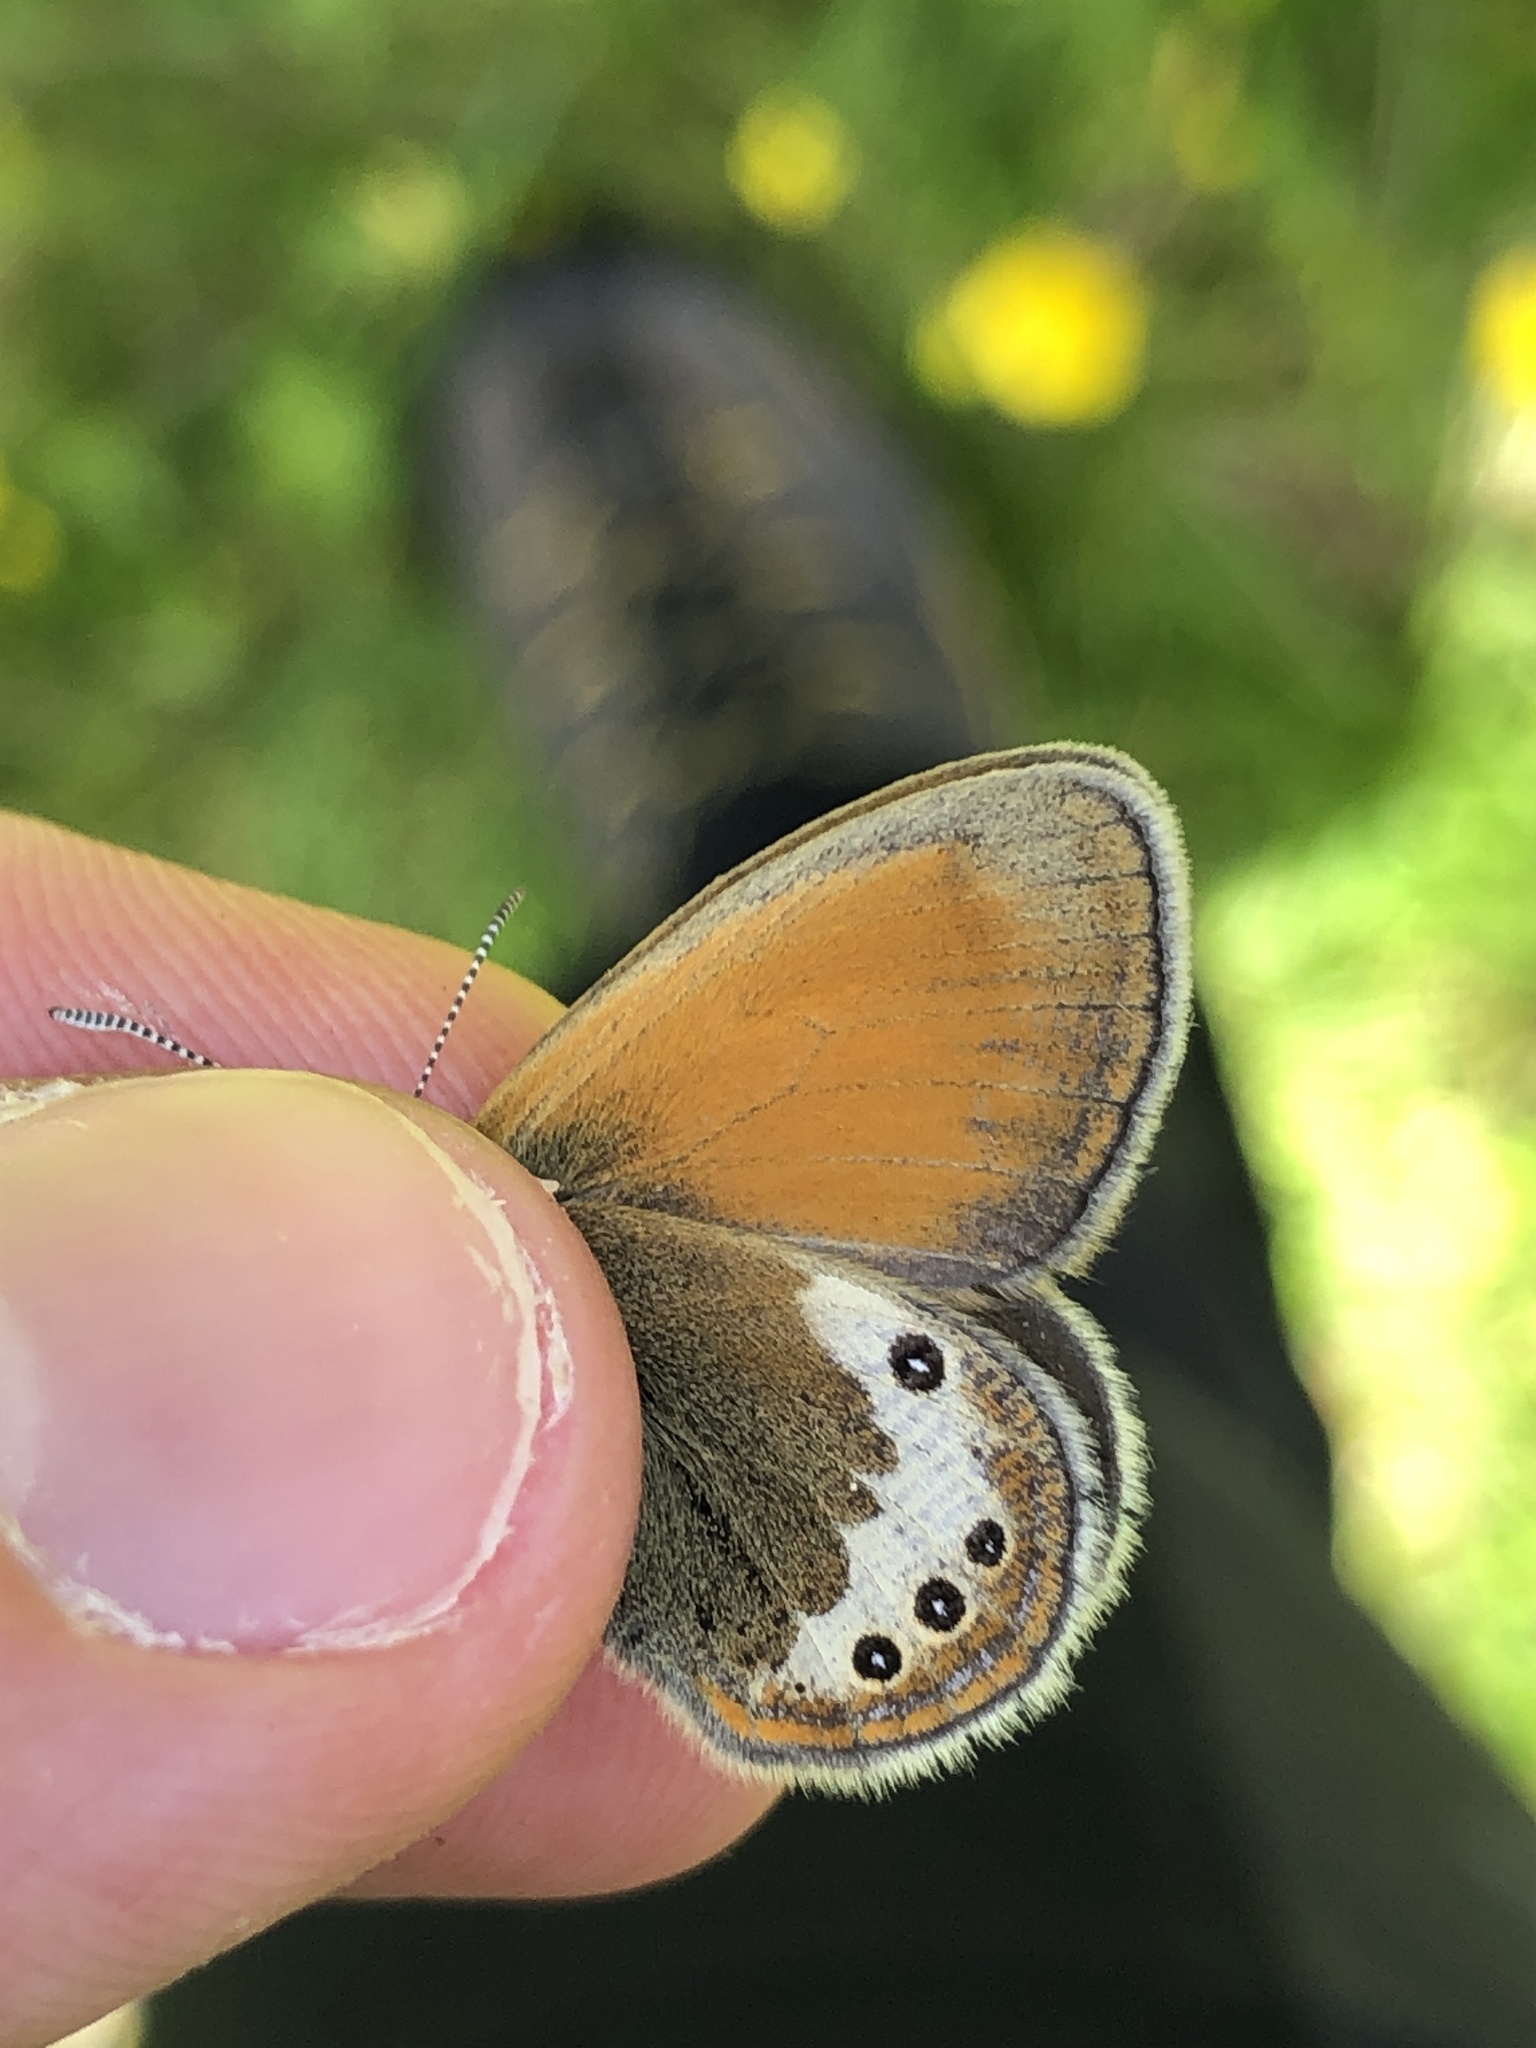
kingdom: Animalia
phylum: Arthropoda
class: Insecta
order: Lepidoptera
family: Nymphalidae
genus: Coenonympha
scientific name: Coenonympha
